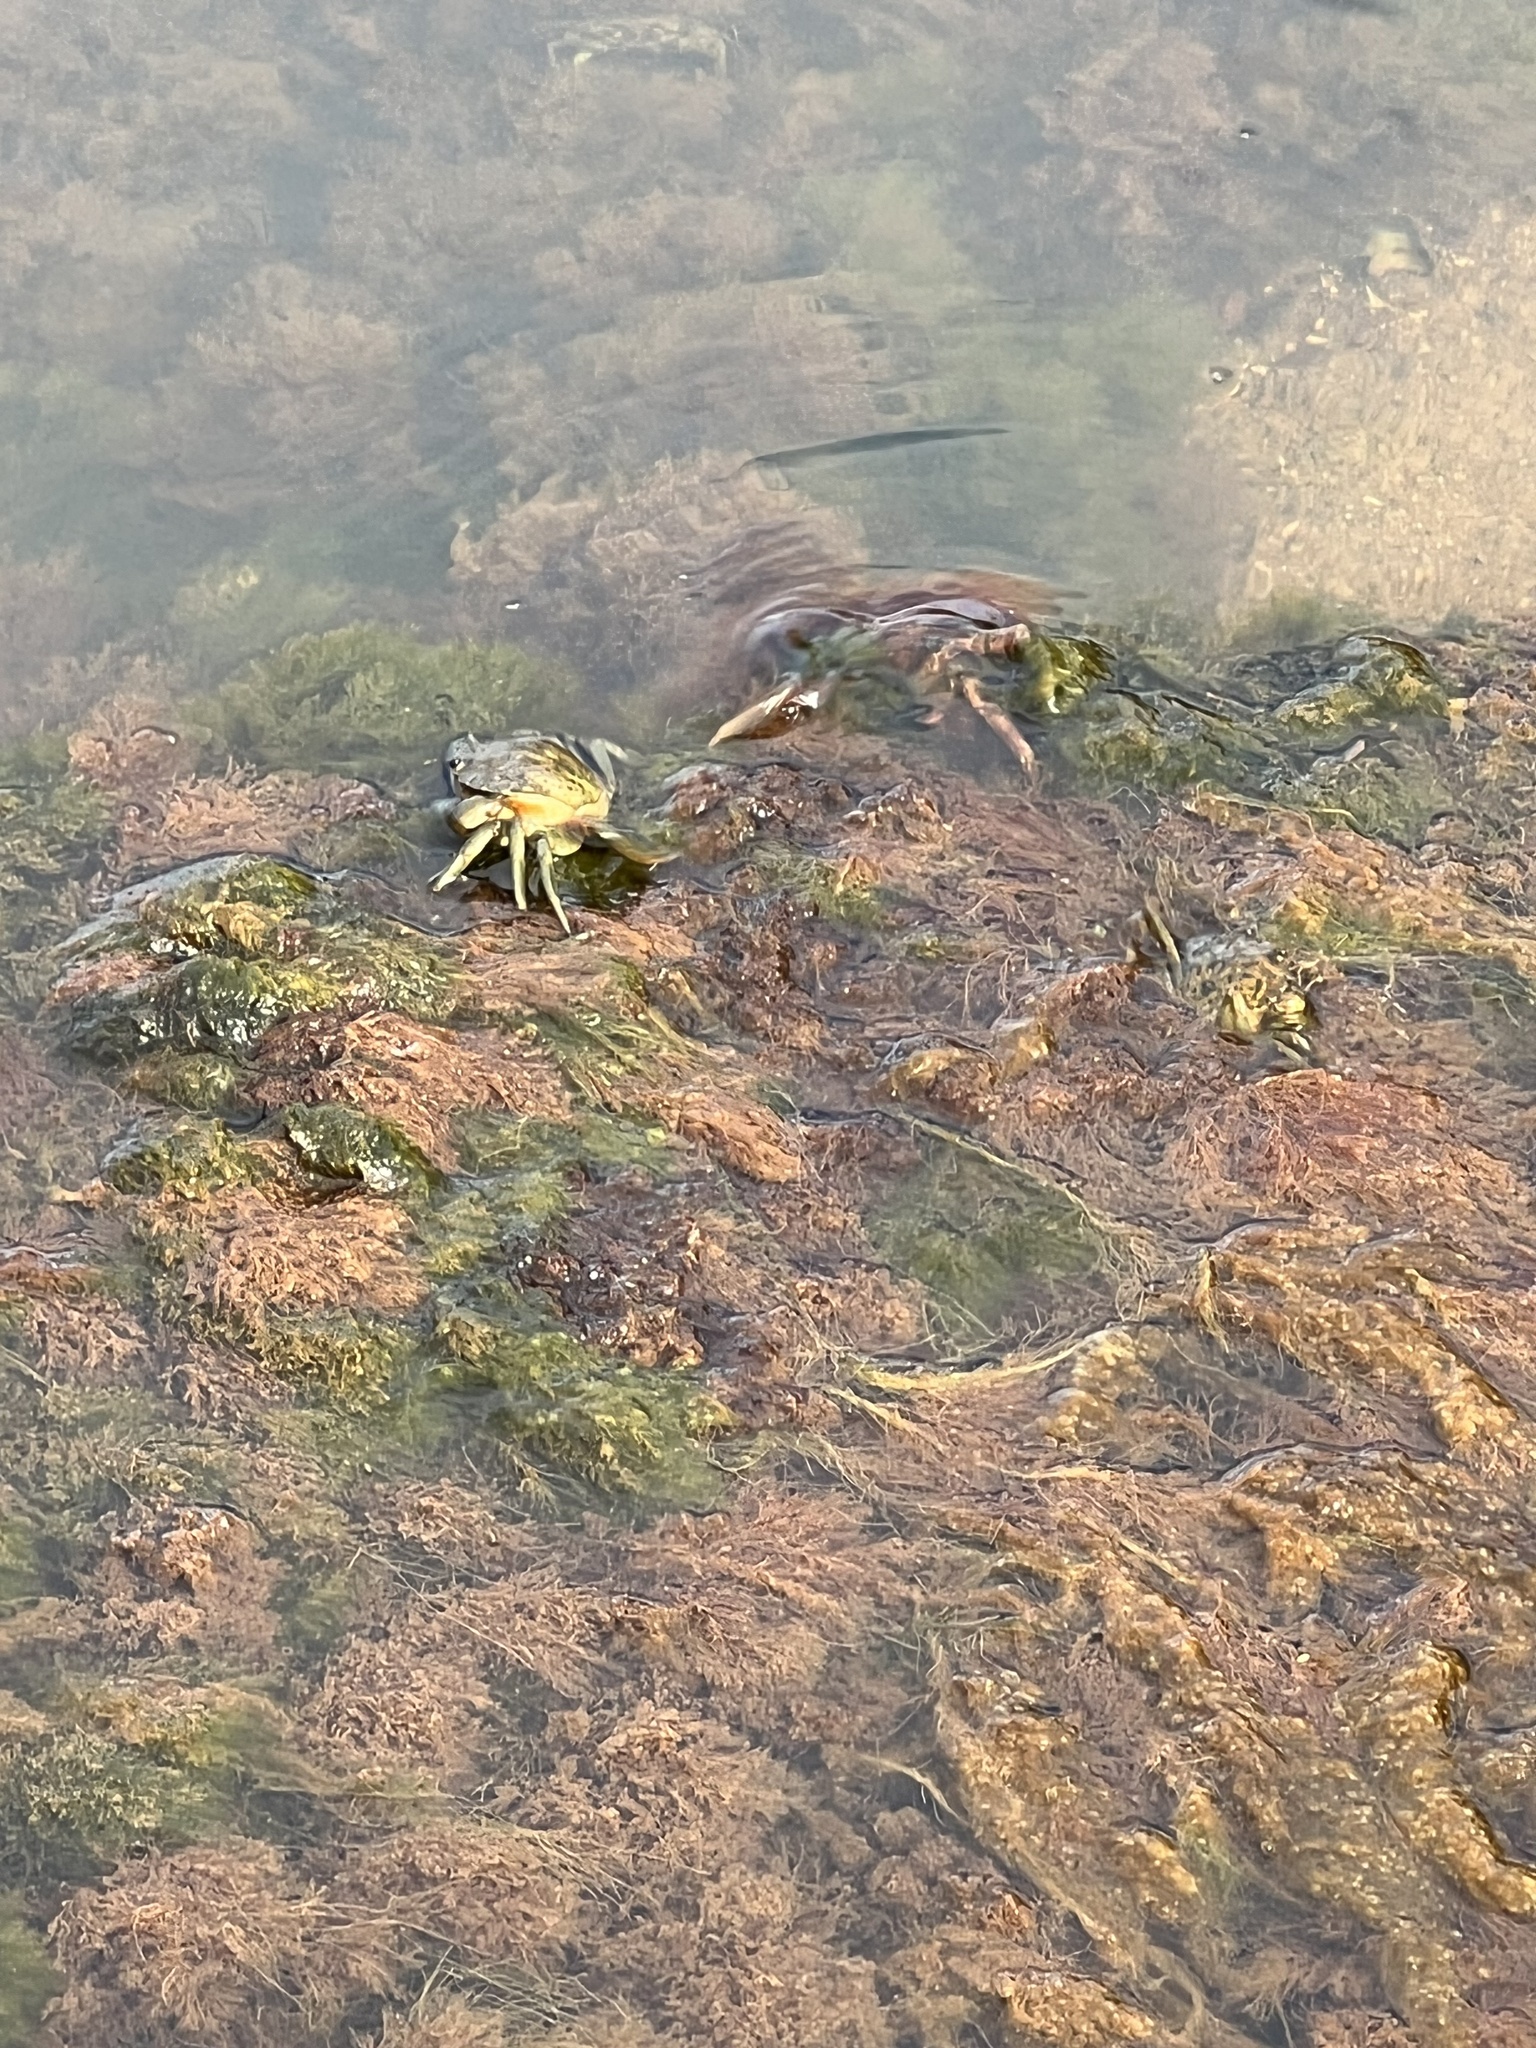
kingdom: Animalia
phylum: Arthropoda
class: Malacostraca
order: Decapoda
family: Carcinidae
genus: Carcinus
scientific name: Carcinus maenas
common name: European green crab
